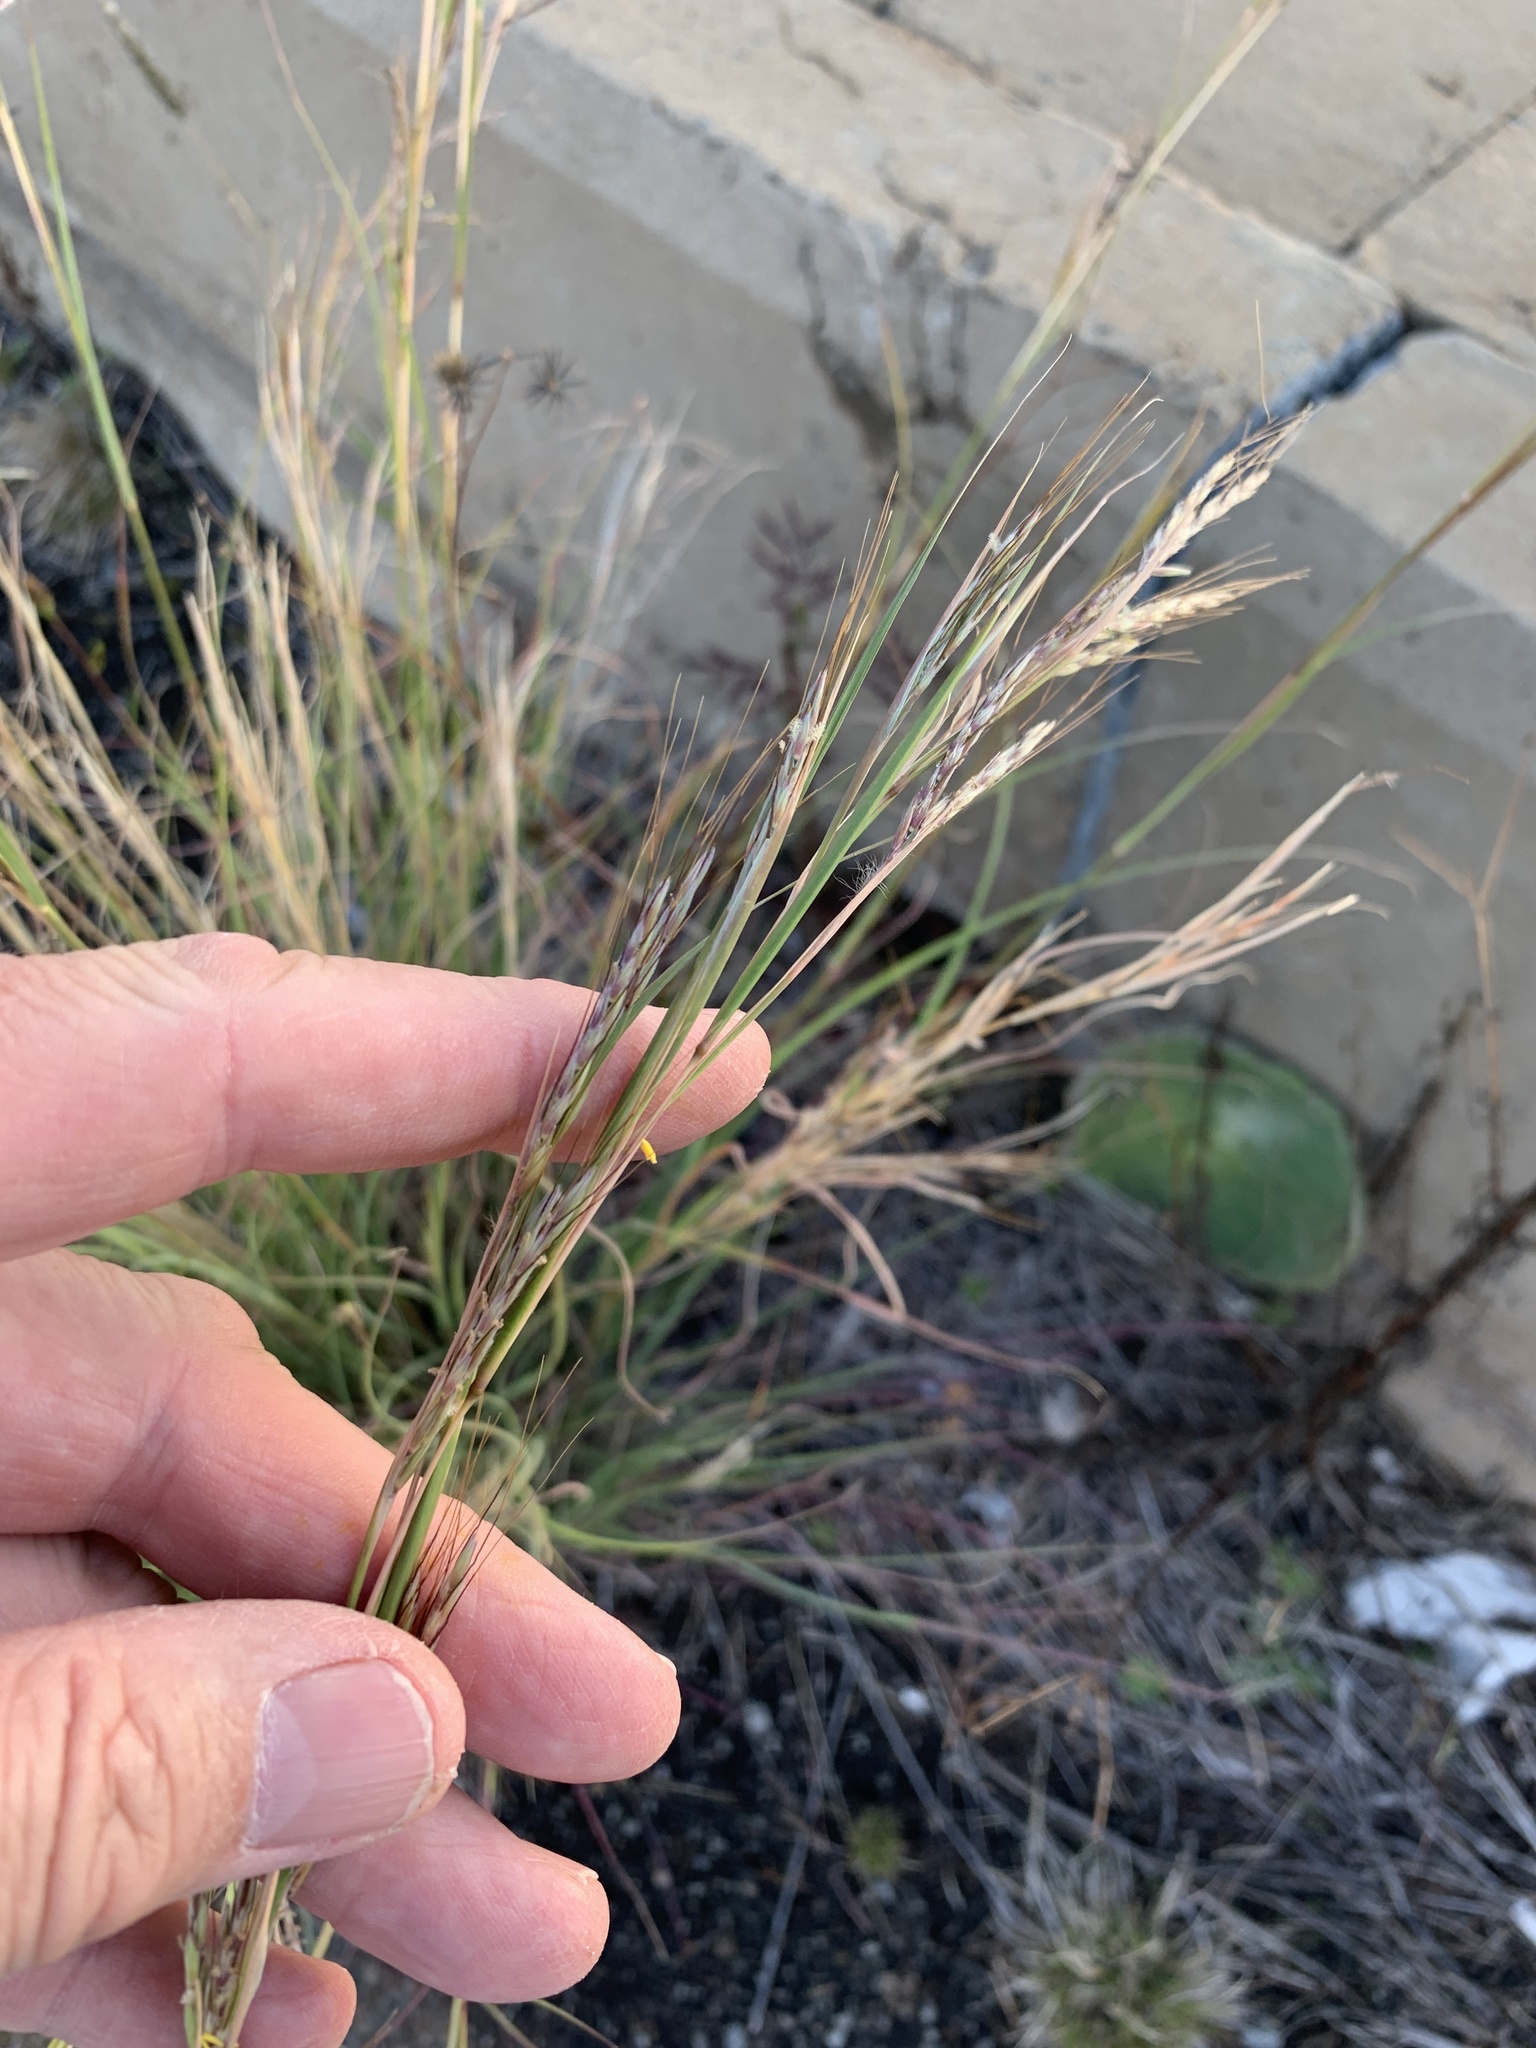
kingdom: Plantae
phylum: Tracheophyta
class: Liliopsida
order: Poales
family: Poaceae
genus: Hyparrhenia
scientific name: Hyparrhenia hirta
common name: Thatching grass
